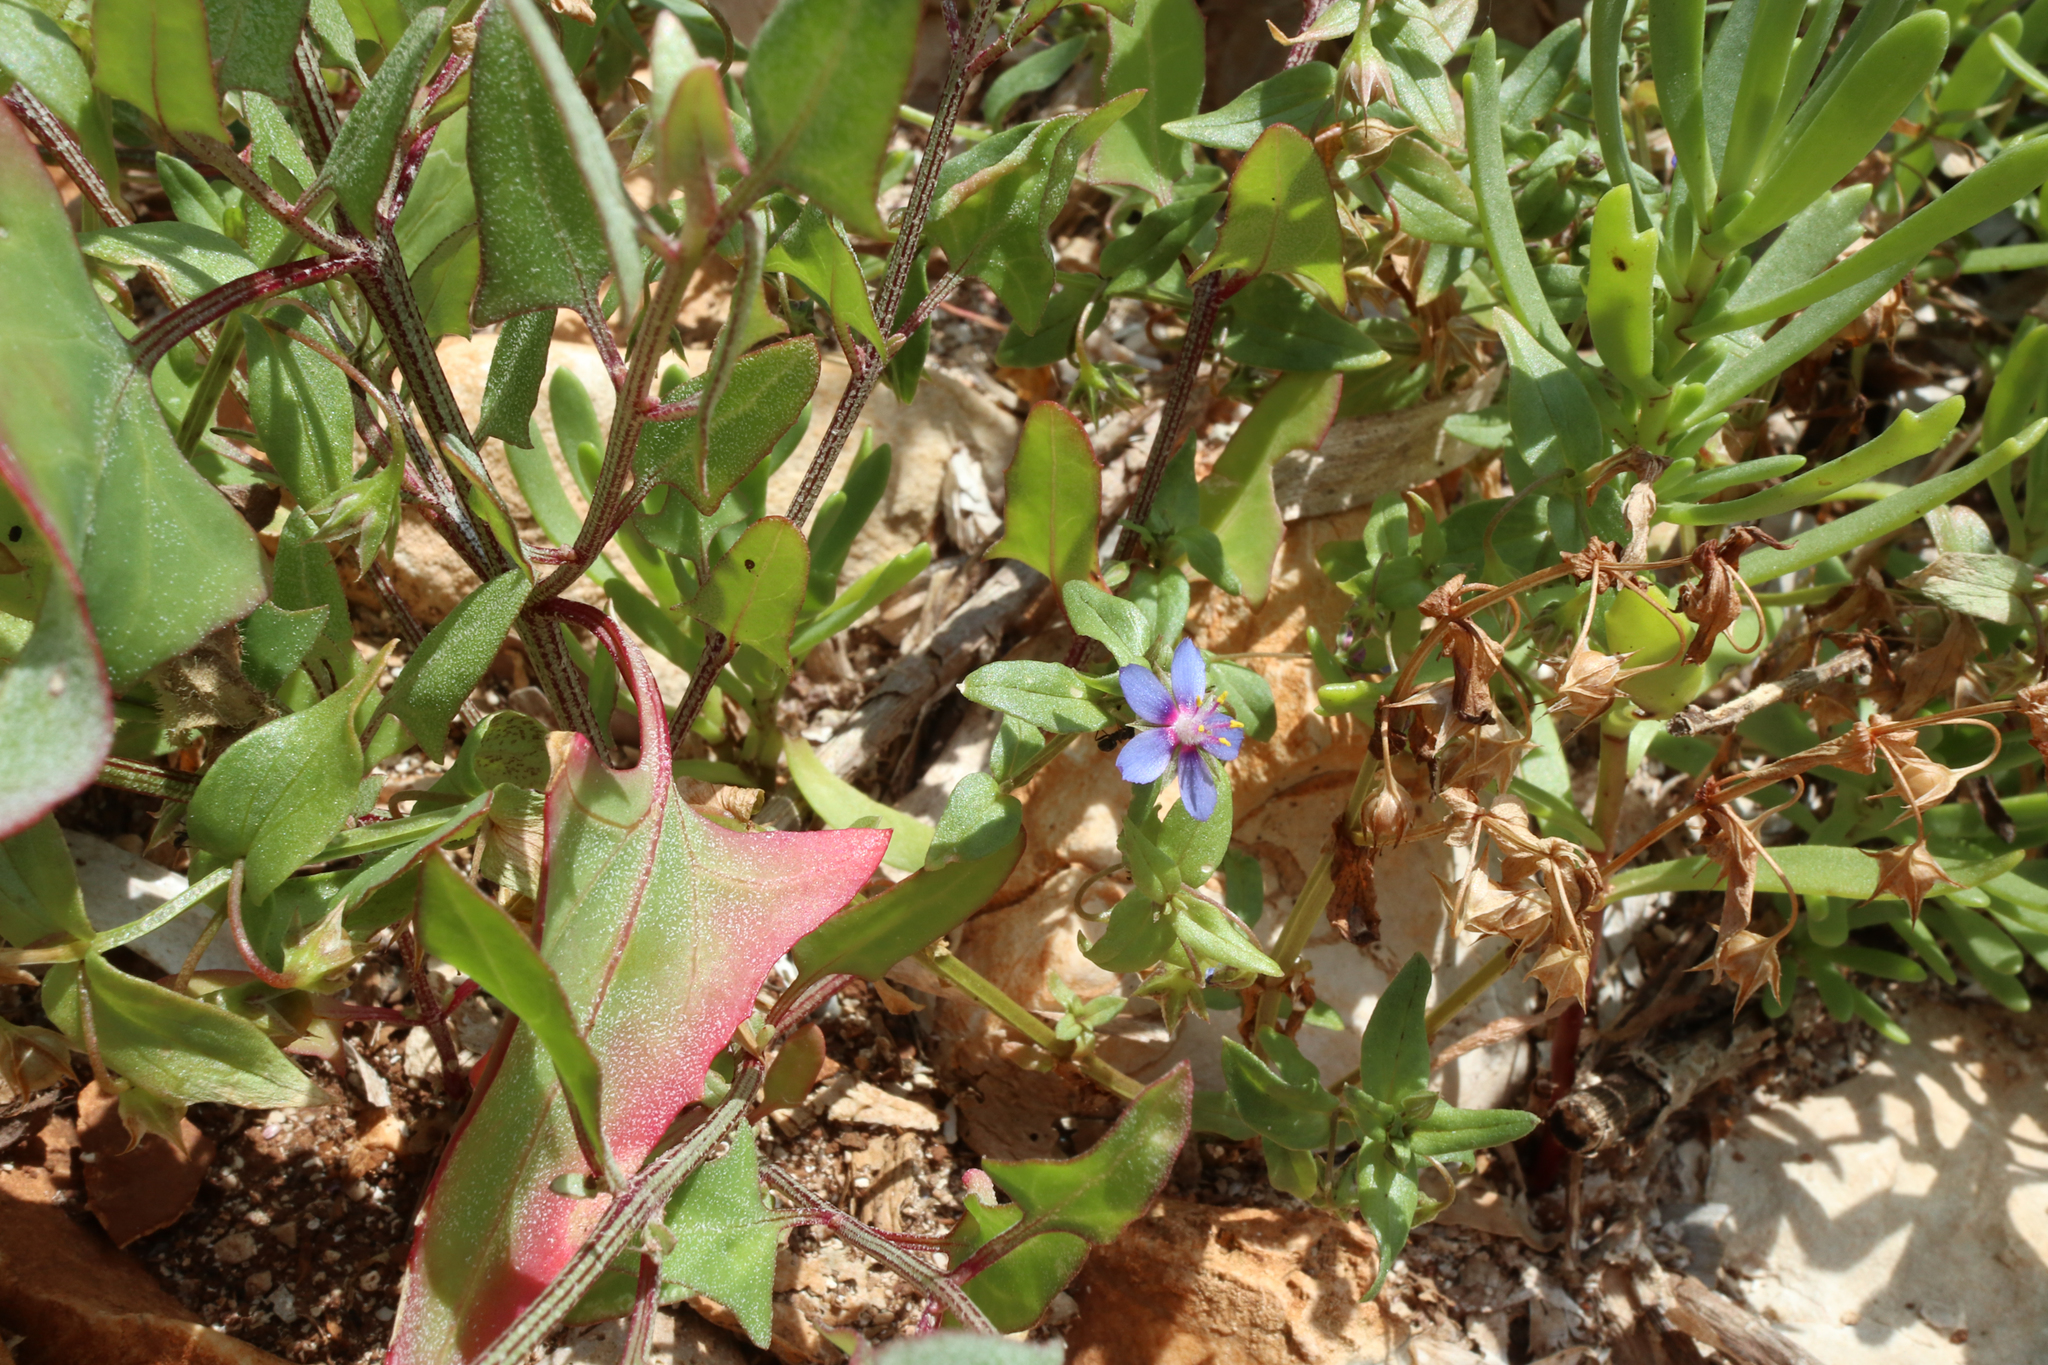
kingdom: Plantae
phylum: Tracheophyta
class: Magnoliopsida
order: Ericales
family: Primulaceae
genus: Lysimachia
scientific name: Lysimachia foemina
